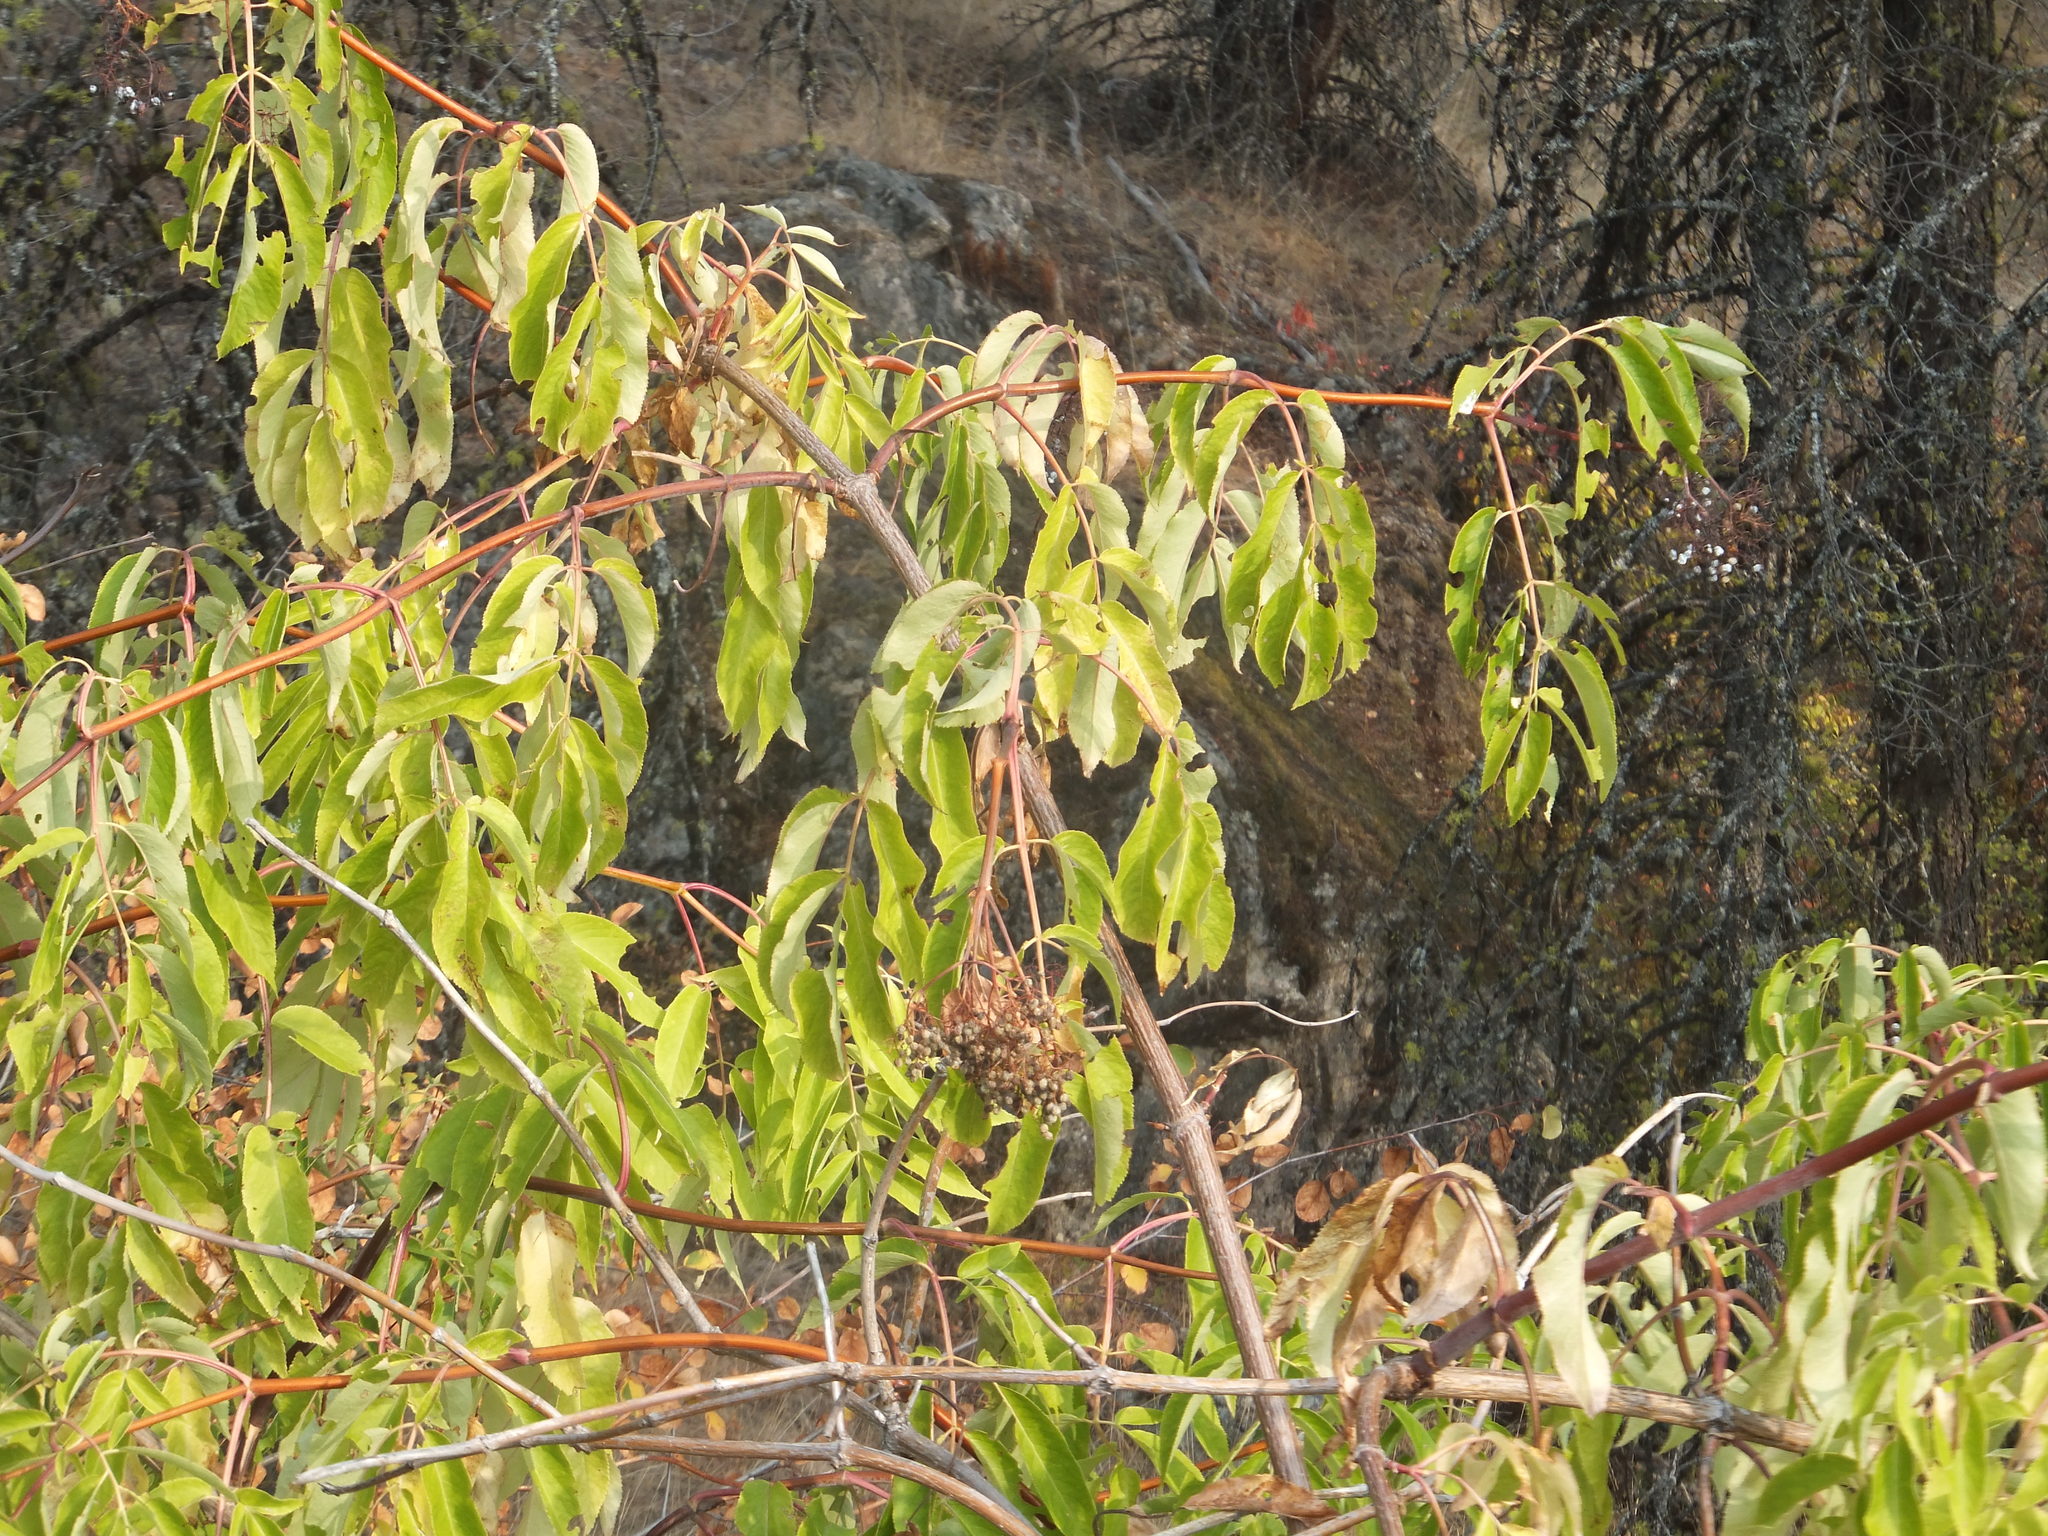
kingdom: Plantae
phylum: Tracheophyta
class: Magnoliopsida
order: Dipsacales
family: Viburnaceae
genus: Sambucus
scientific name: Sambucus cerulea
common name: Blue elder
